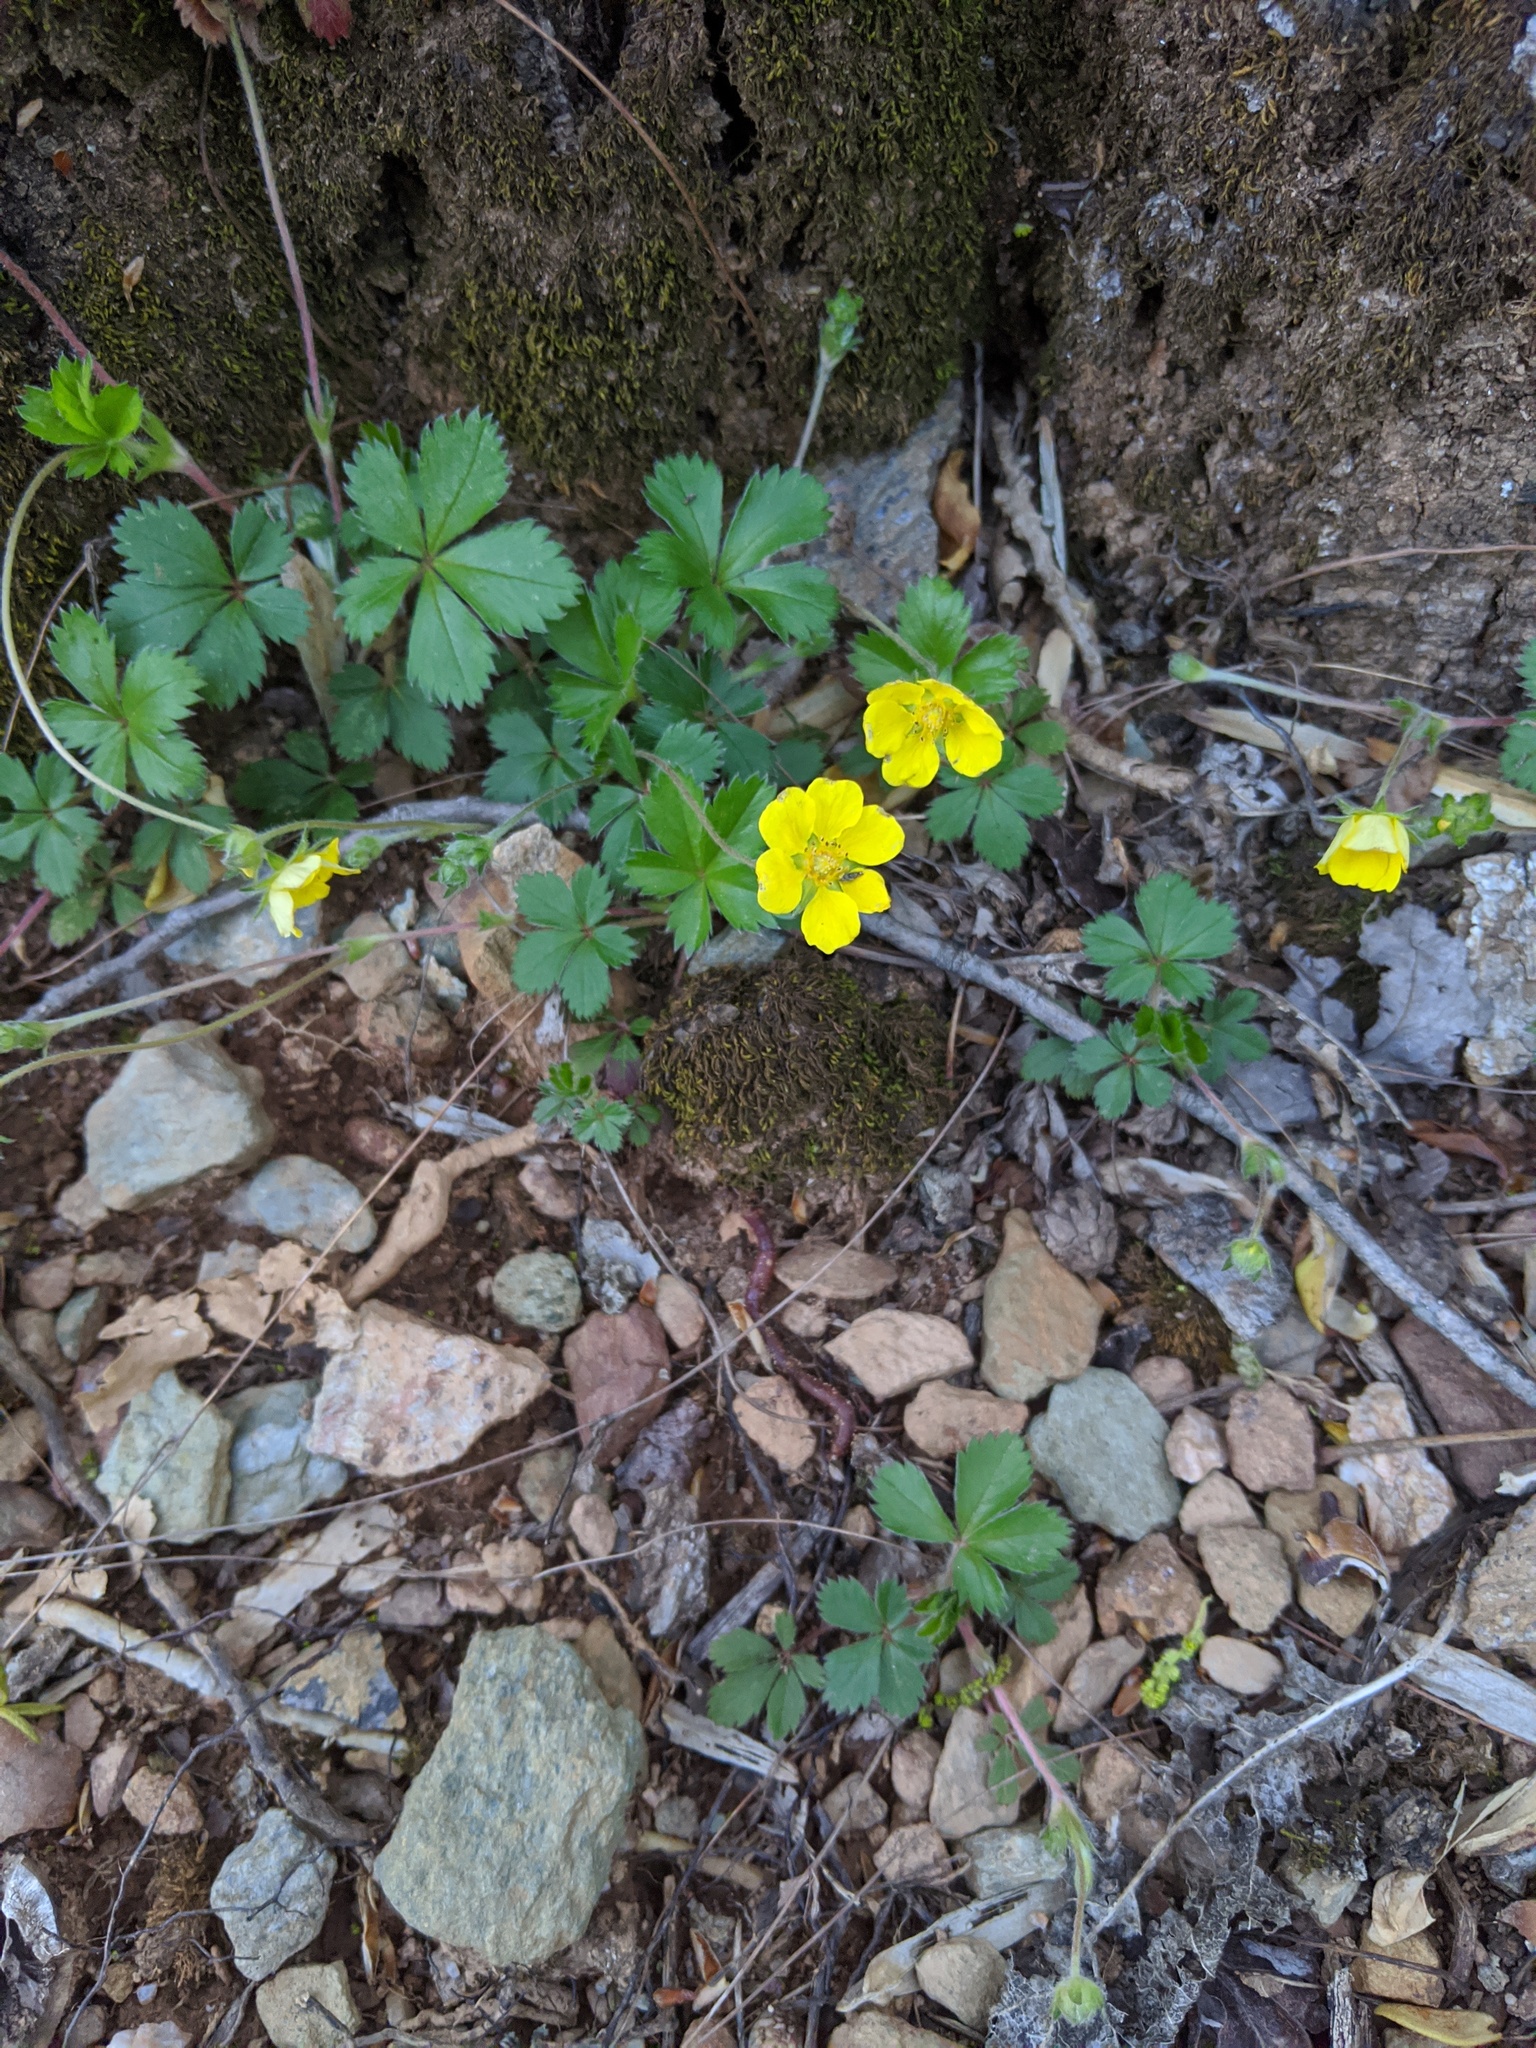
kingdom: Plantae
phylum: Tracheophyta
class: Magnoliopsida
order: Rosales
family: Rosaceae
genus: Potentilla
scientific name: Potentilla canadensis
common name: Canada cinquefoil
